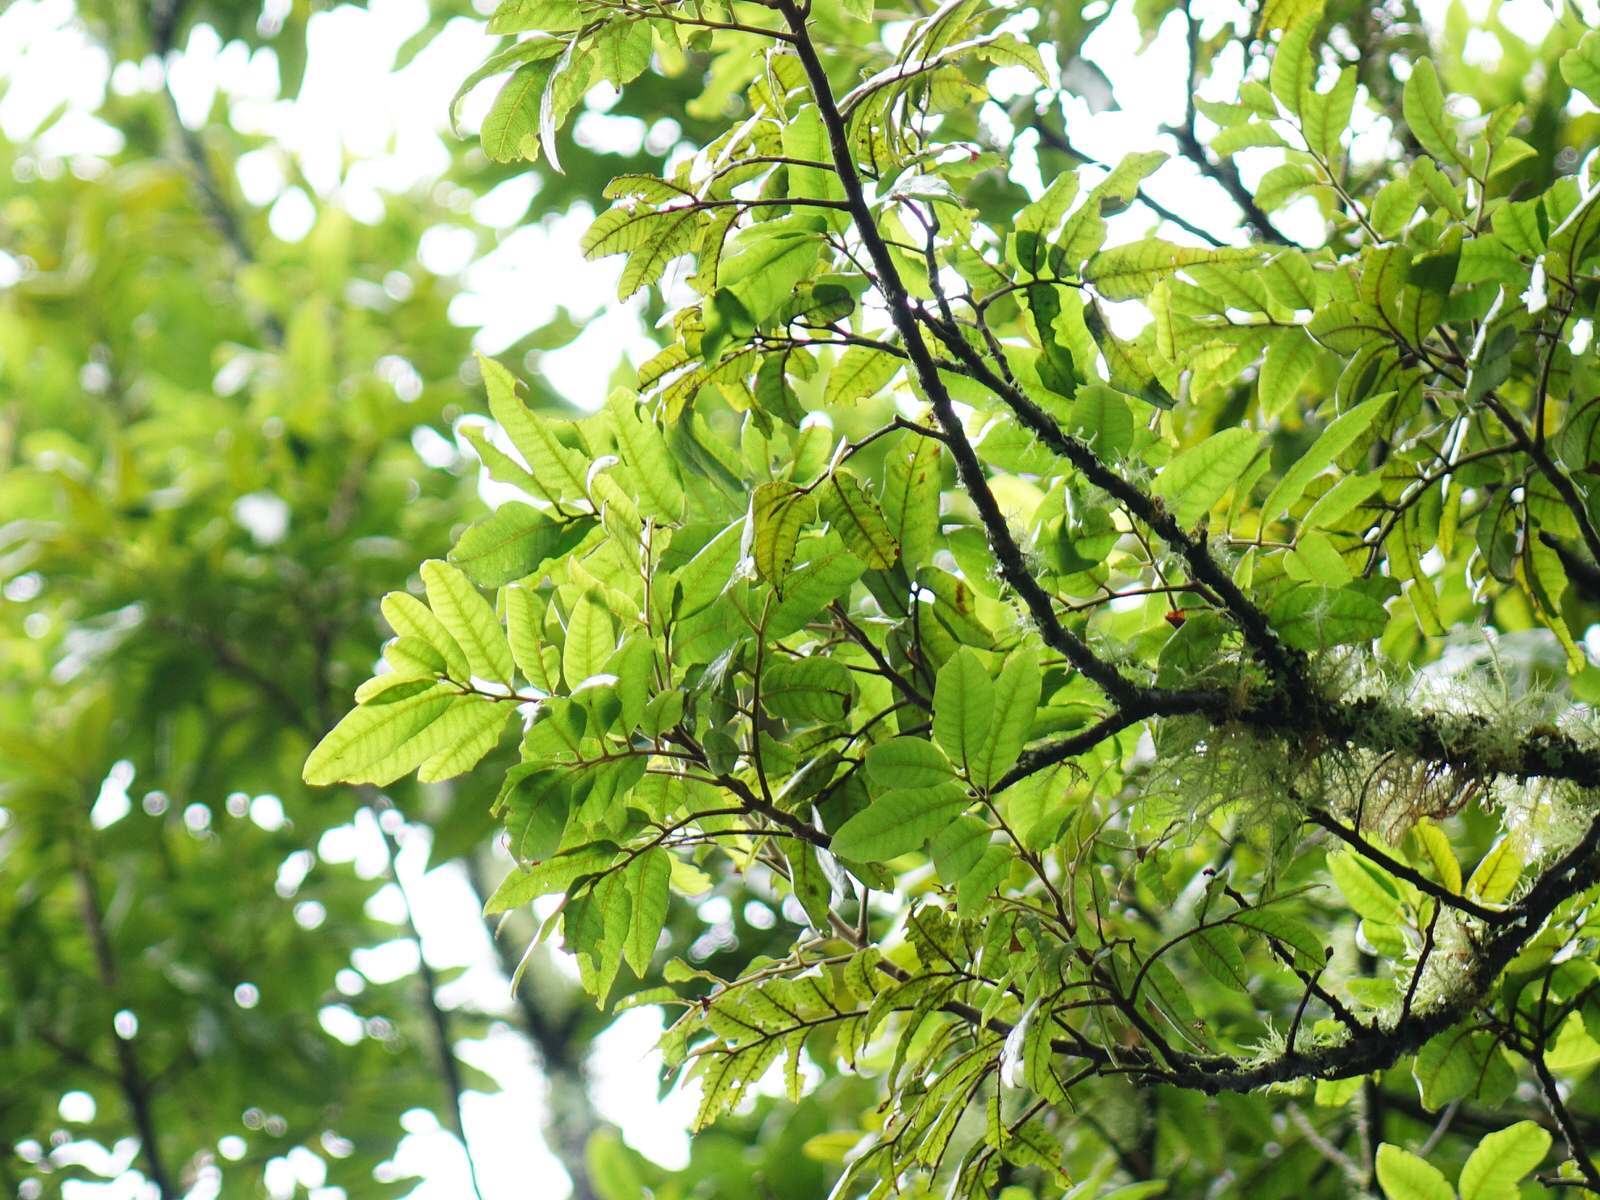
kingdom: Plantae
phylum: Tracheophyta
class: Magnoliopsida
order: Sapindales
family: Sapindaceae
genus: Alectryon
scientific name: Alectryon excelsus
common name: Three kings titoki
